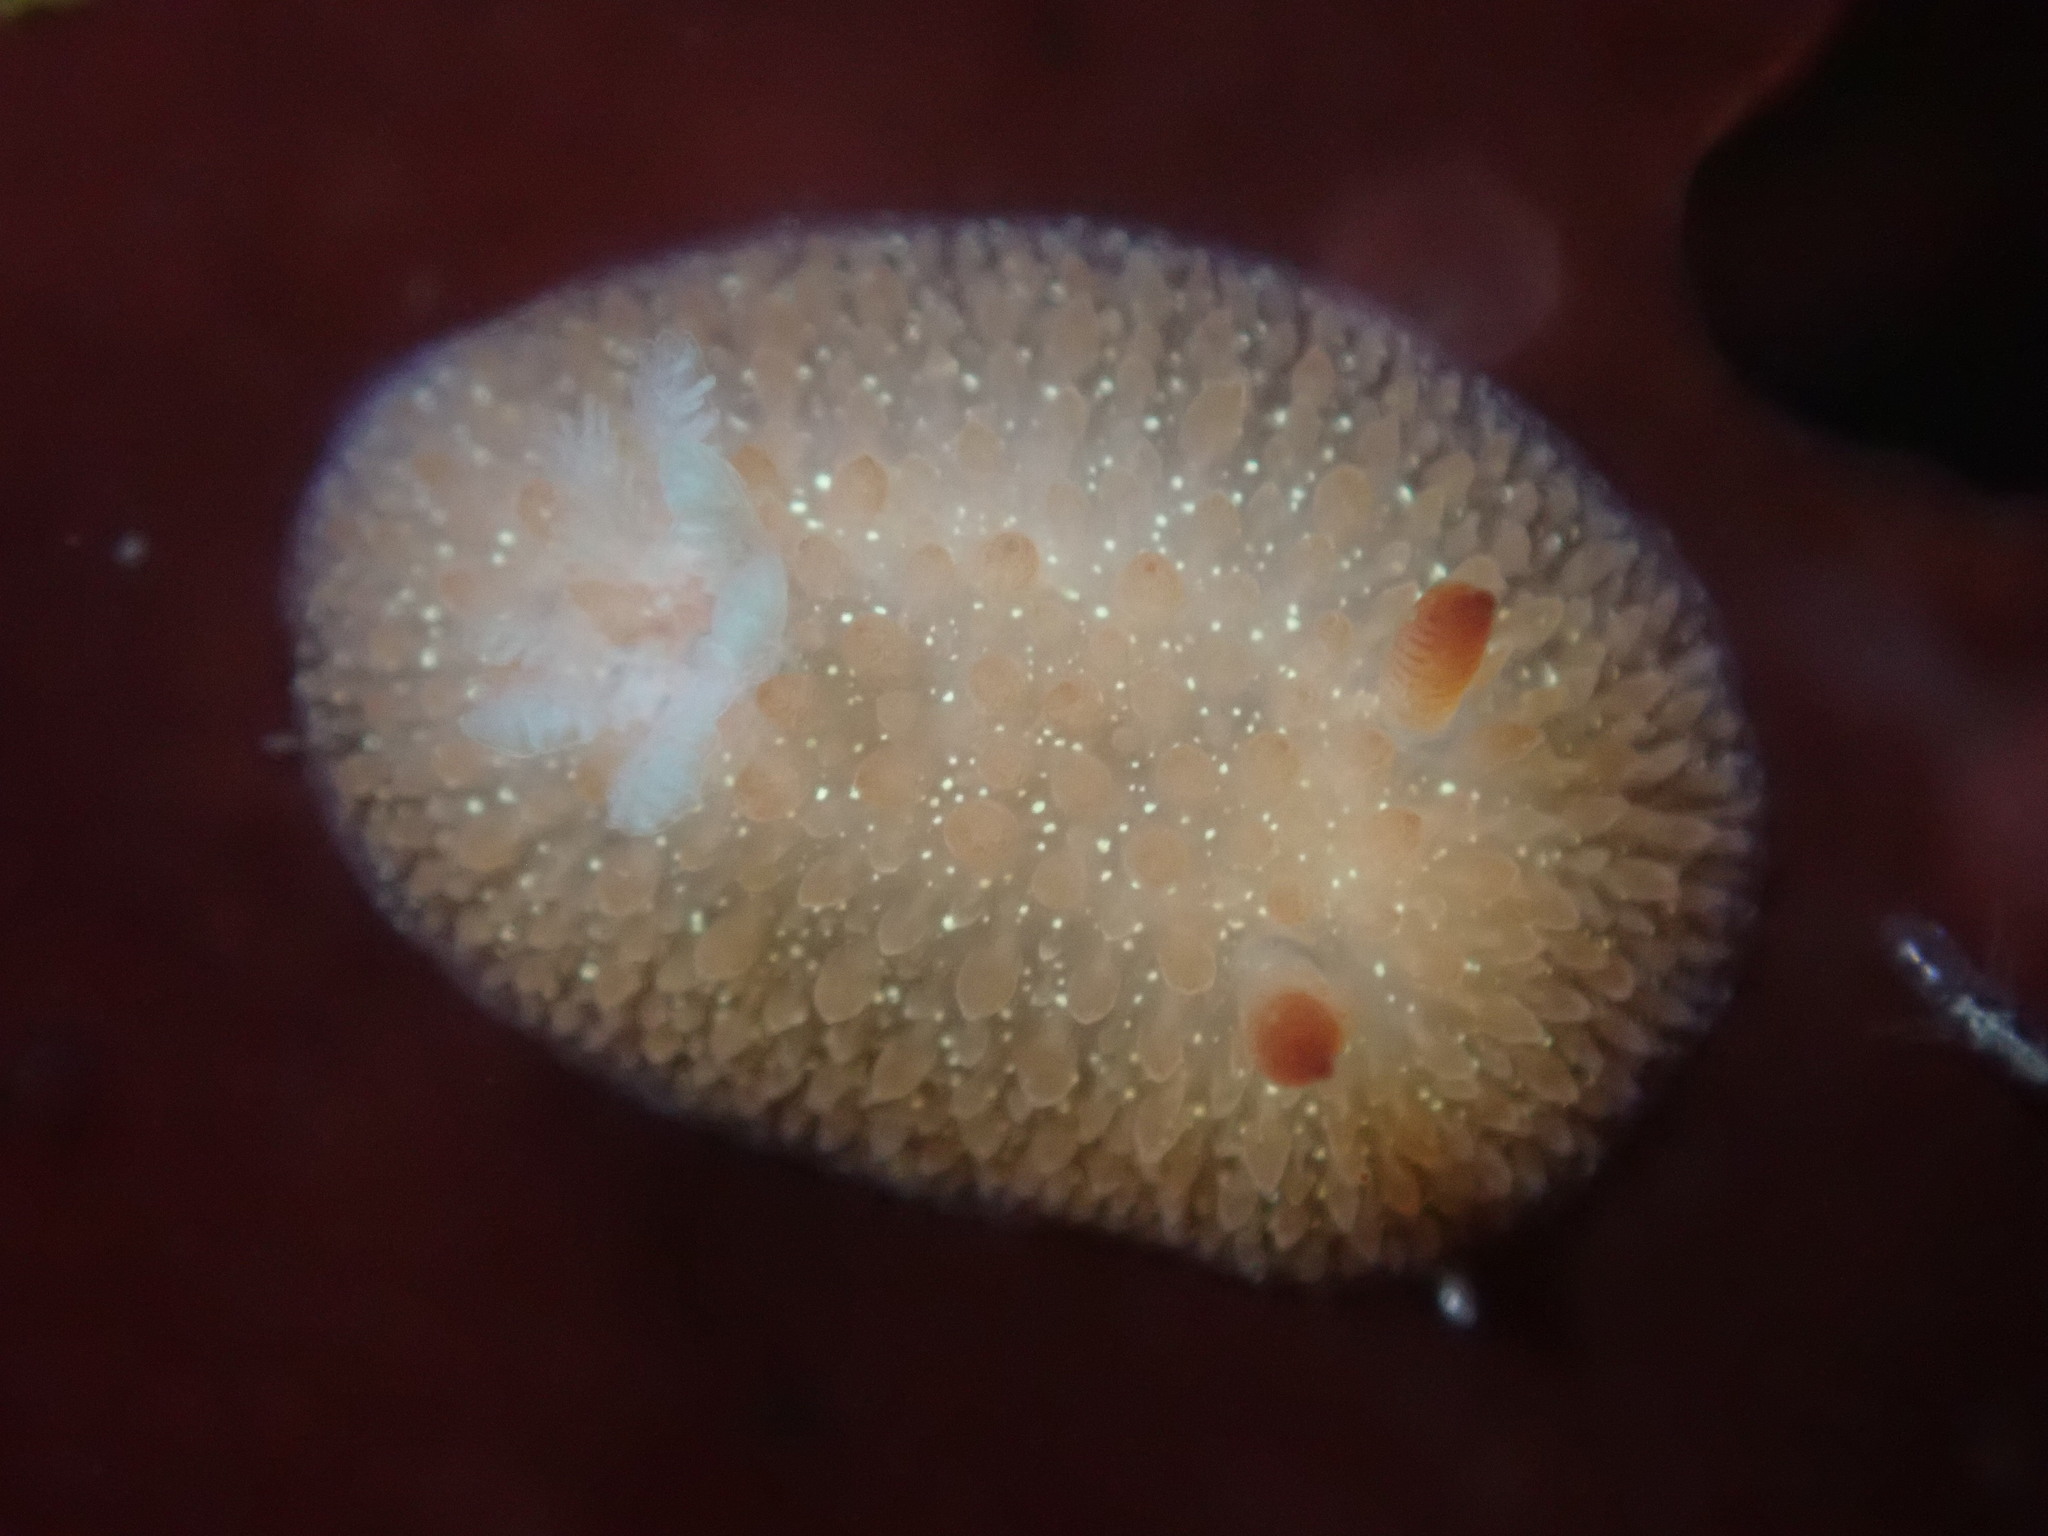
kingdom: Animalia
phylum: Mollusca
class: Gastropoda
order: Nudibranchia
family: Onchidorididae
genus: Acanthodoris
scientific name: Acanthodoris lutea
